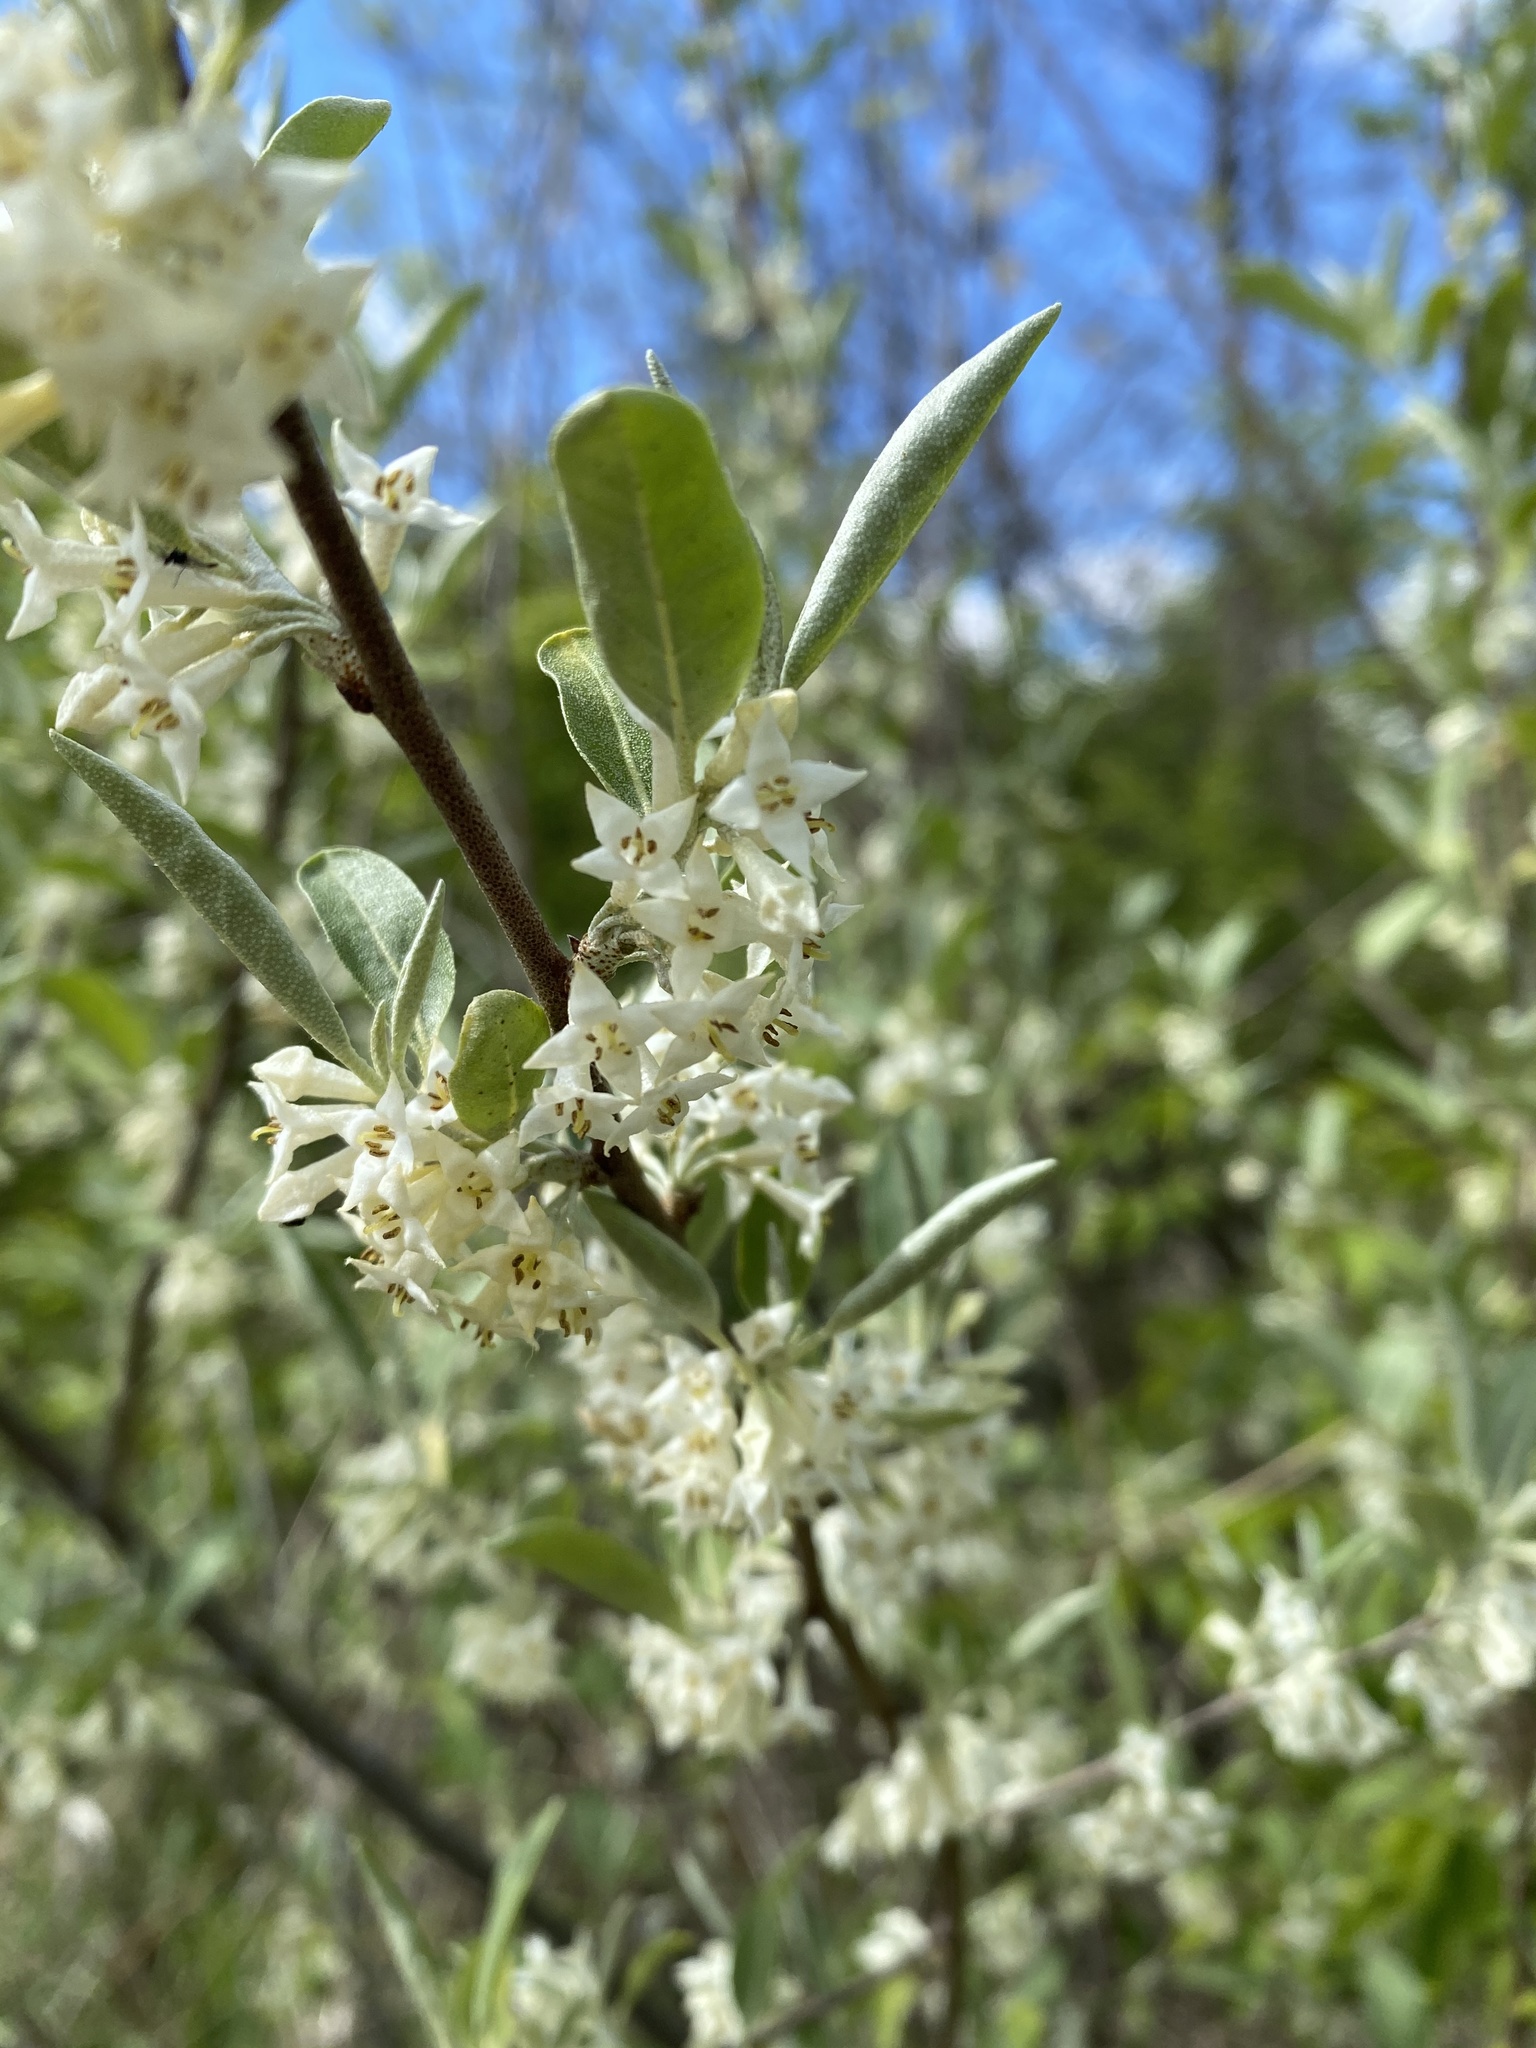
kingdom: Plantae
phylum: Tracheophyta
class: Magnoliopsida
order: Rosales
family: Elaeagnaceae
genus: Elaeagnus
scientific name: Elaeagnus umbellata
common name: Autumn olive
